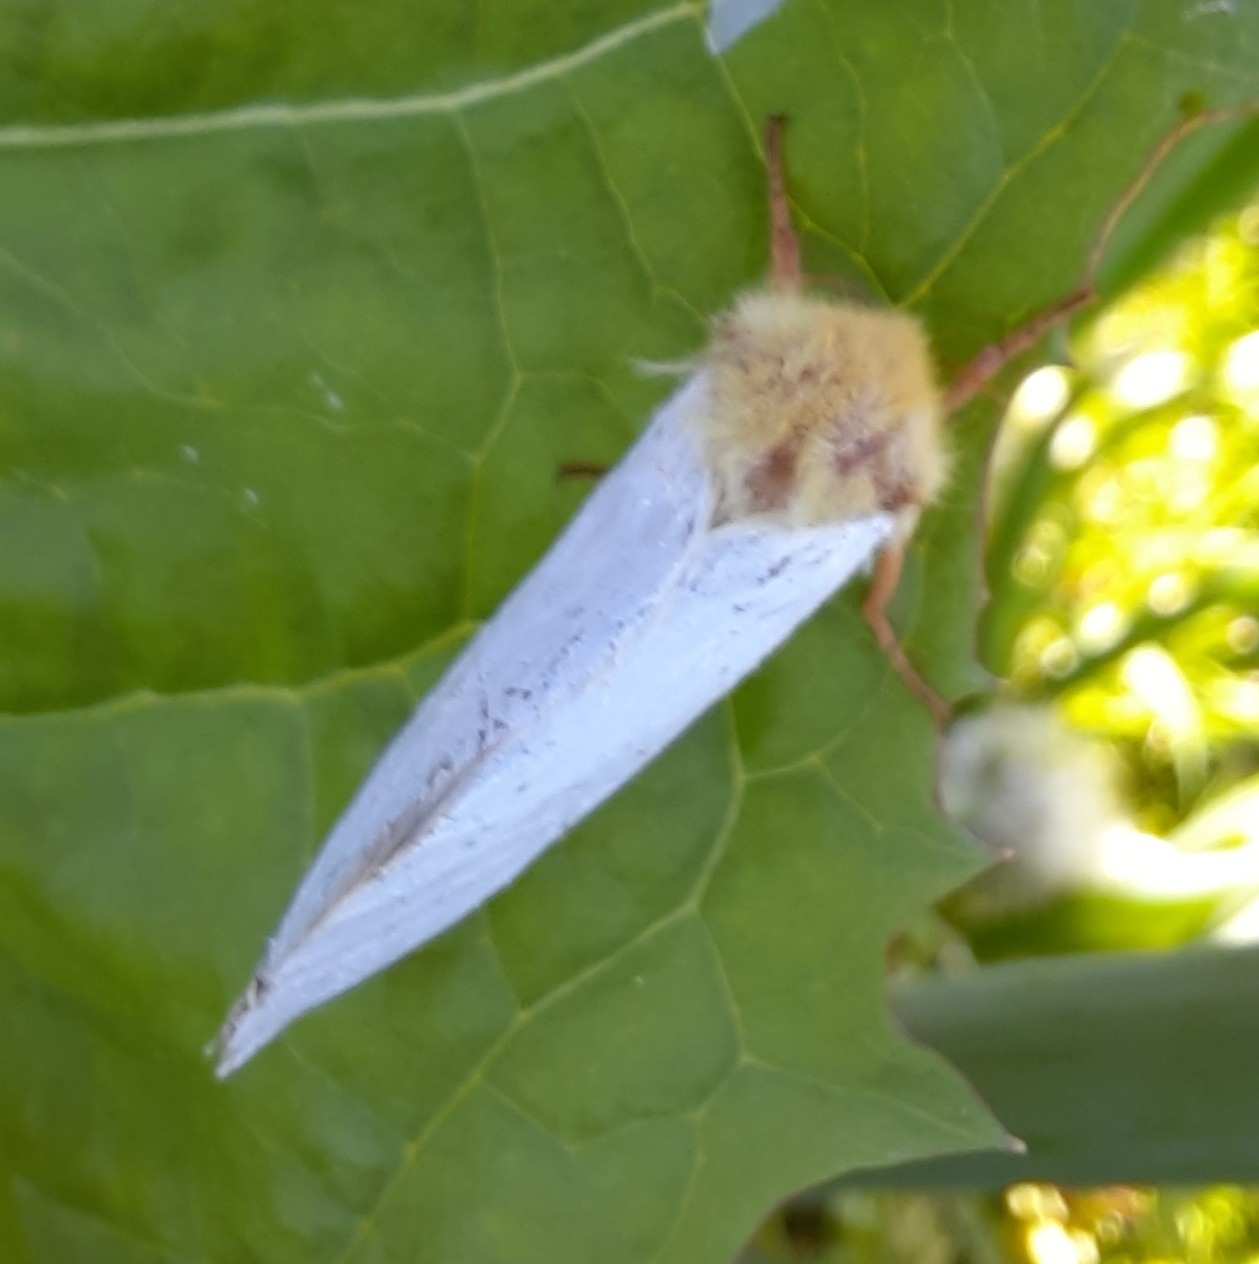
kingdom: Animalia
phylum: Arthropoda
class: Insecta
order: Lepidoptera
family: Hepialidae
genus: Hepialus
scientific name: Hepialus humuli
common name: Ghost moth
